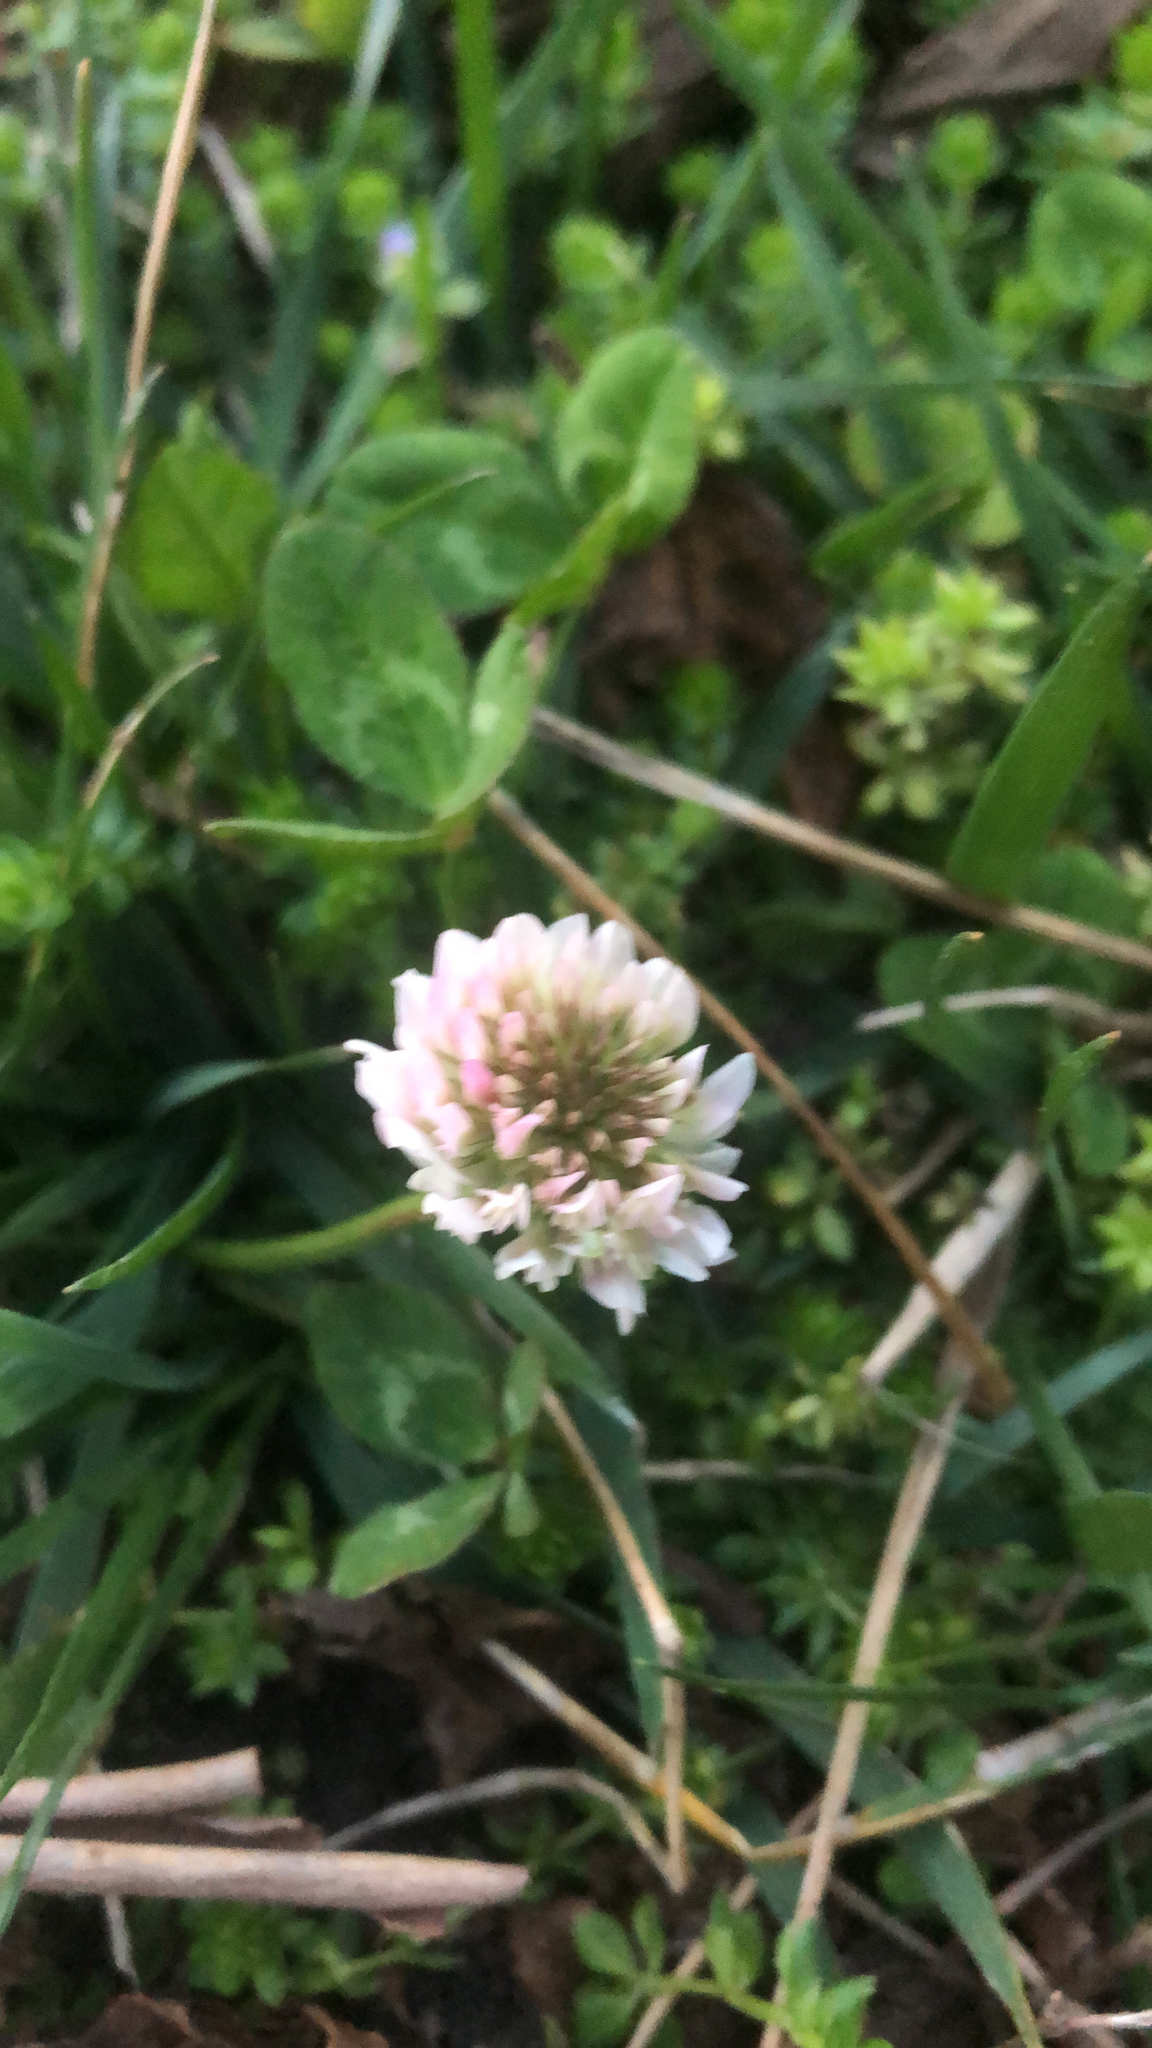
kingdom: Plantae
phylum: Tracheophyta
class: Magnoliopsida
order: Fabales
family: Fabaceae
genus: Trifolium
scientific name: Trifolium repens
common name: White clover
